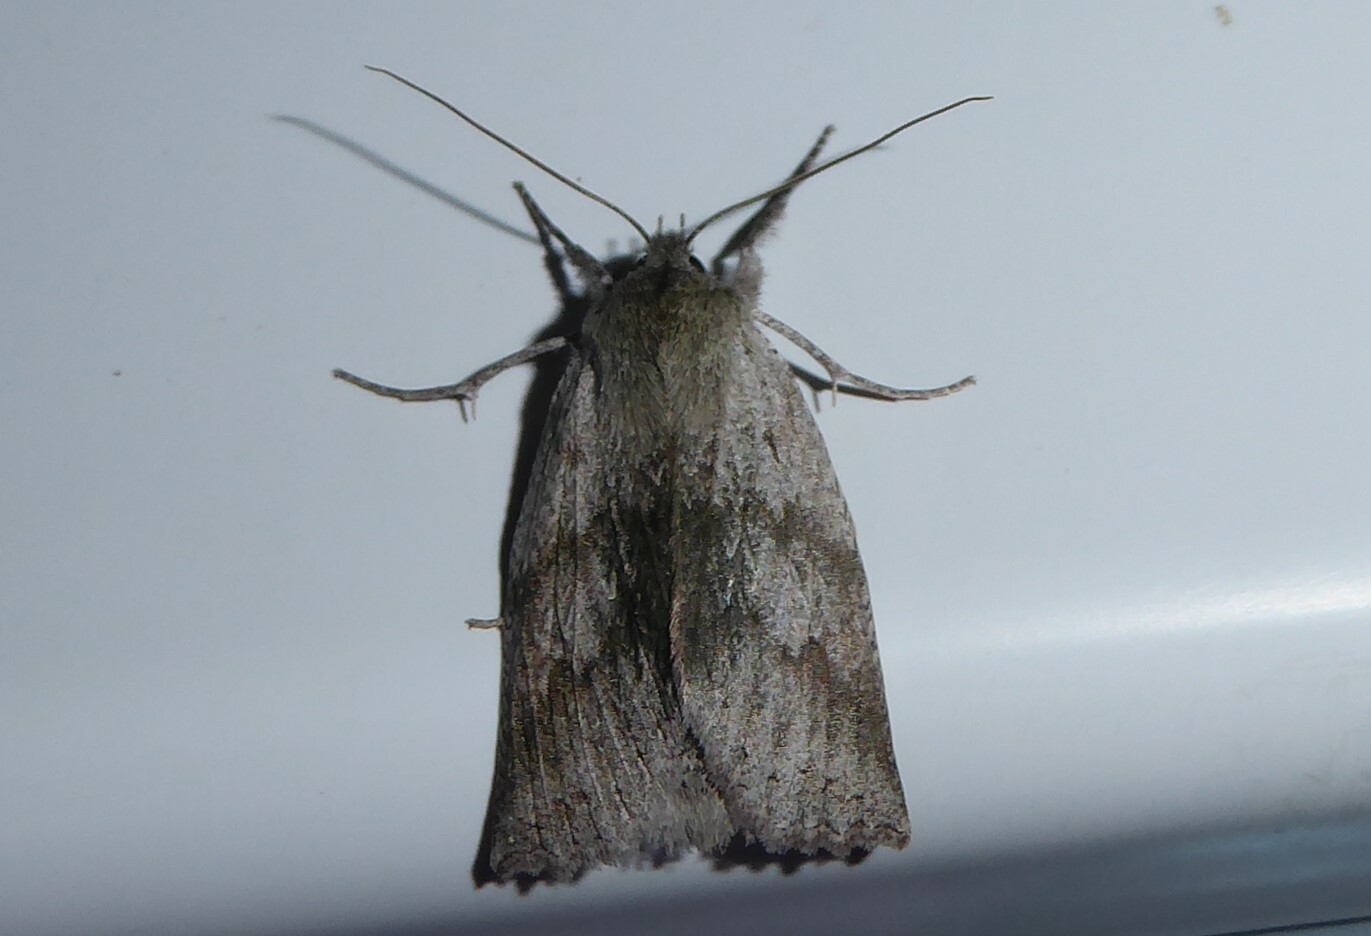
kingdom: Animalia
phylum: Arthropoda
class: Insecta
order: Lepidoptera
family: Geometridae
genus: Declana
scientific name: Declana leptomera
